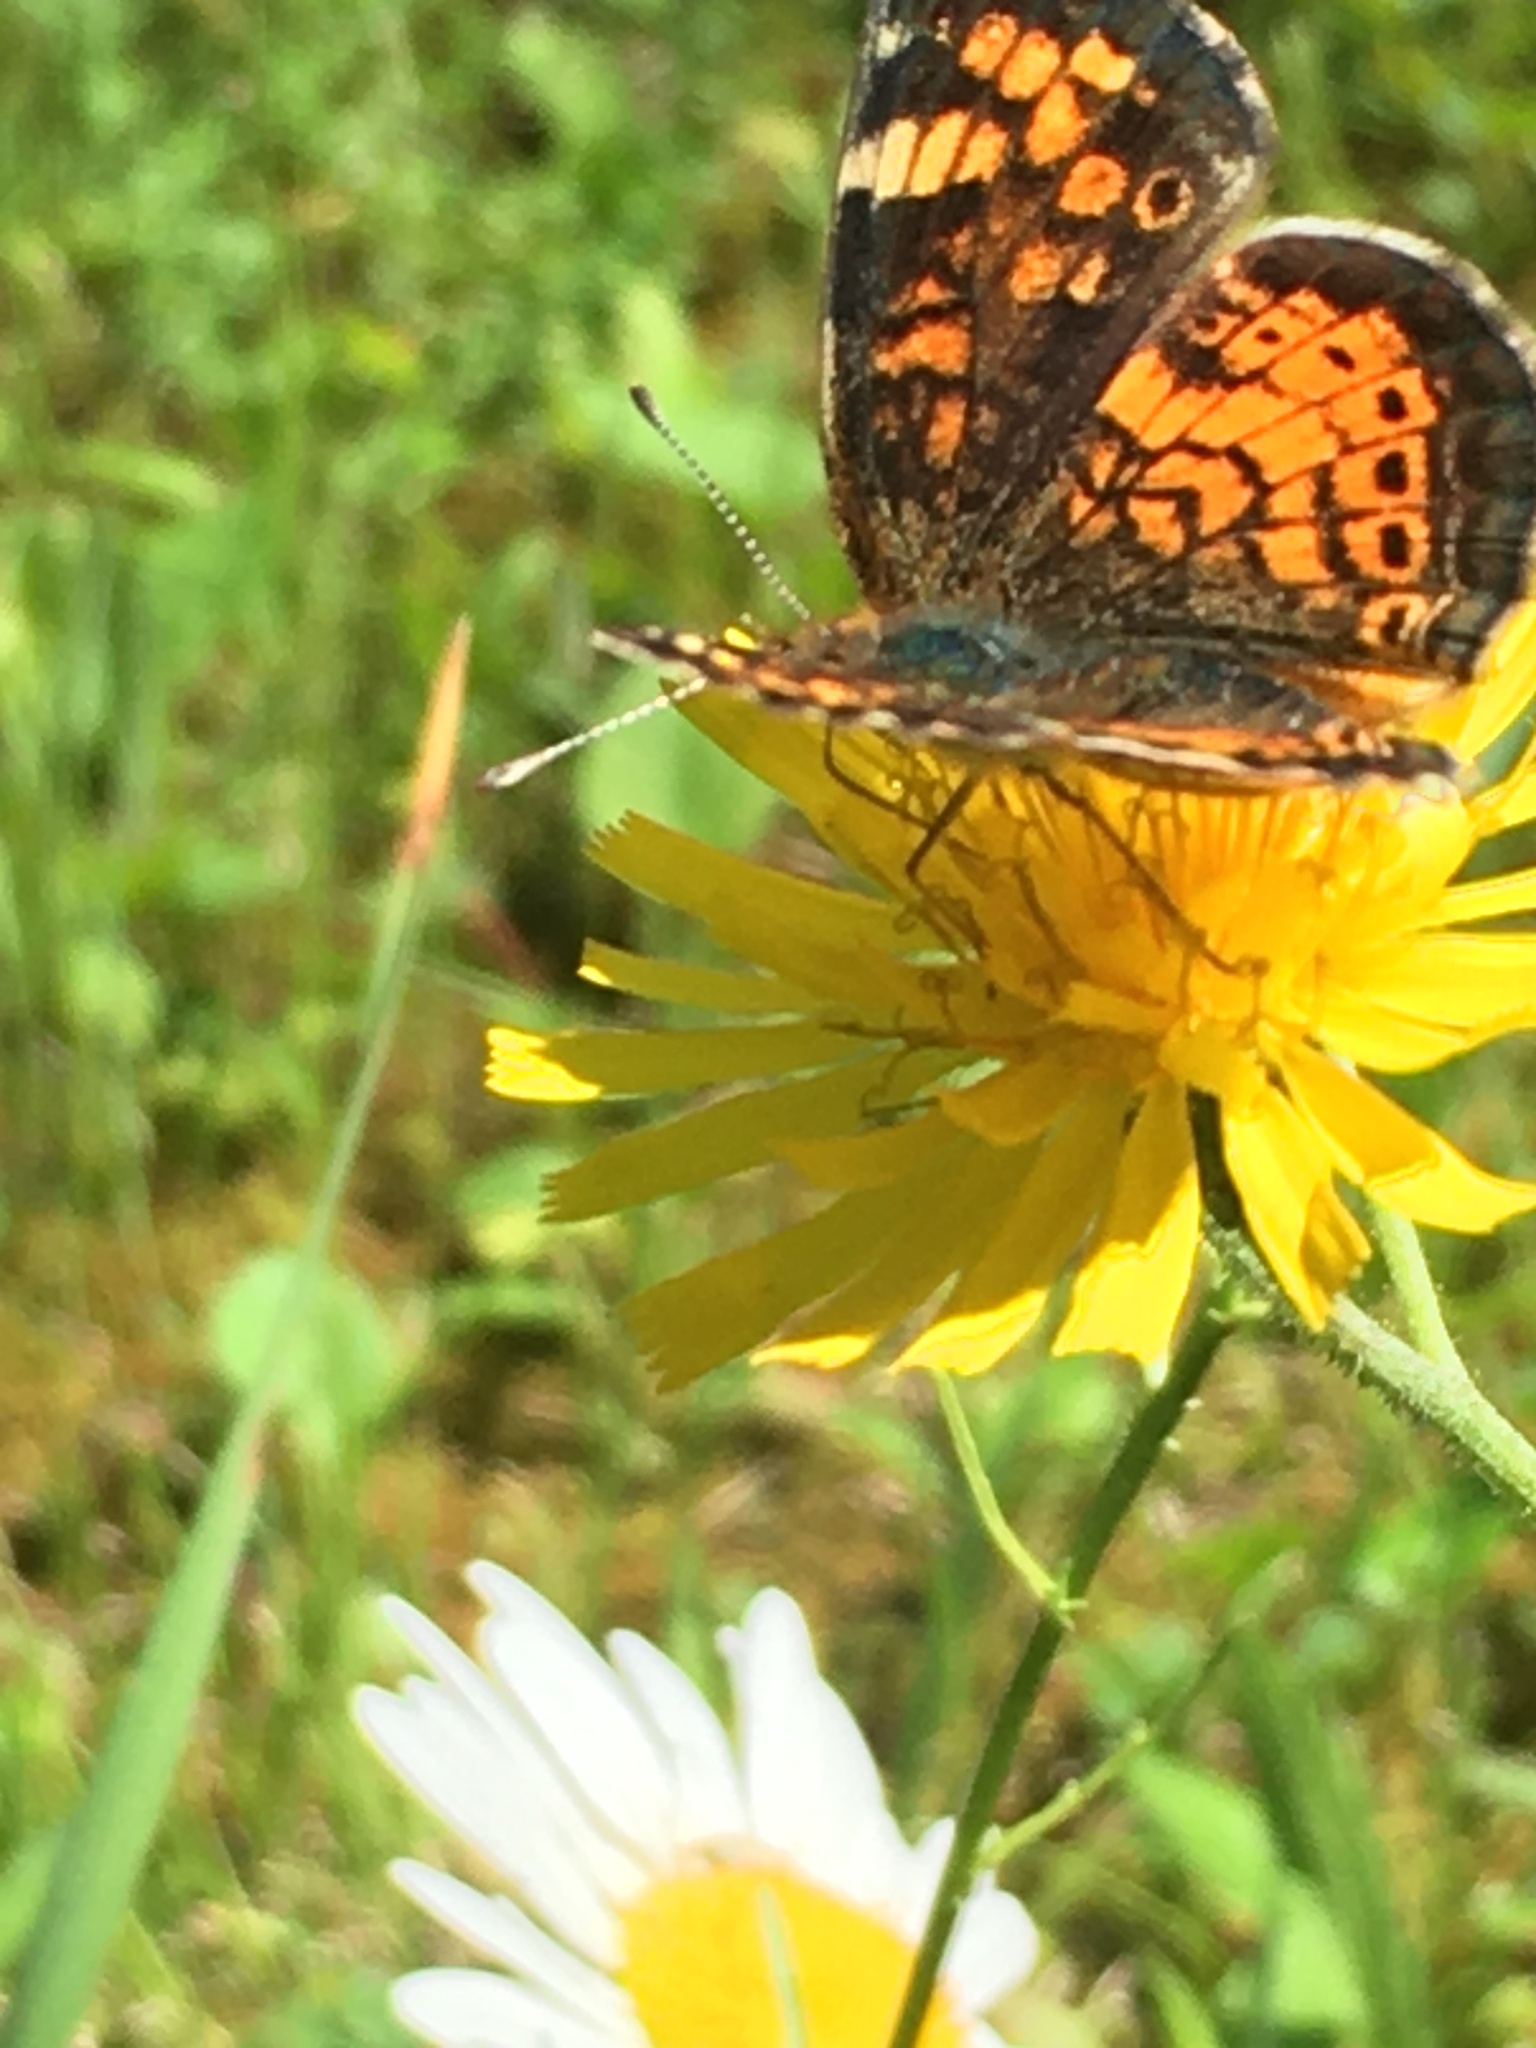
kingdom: Animalia
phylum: Arthropoda
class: Insecta
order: Lepidoptera
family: Nymphalidae
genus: Phyciodes
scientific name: Phyciodes tharos
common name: Pearl crescent
